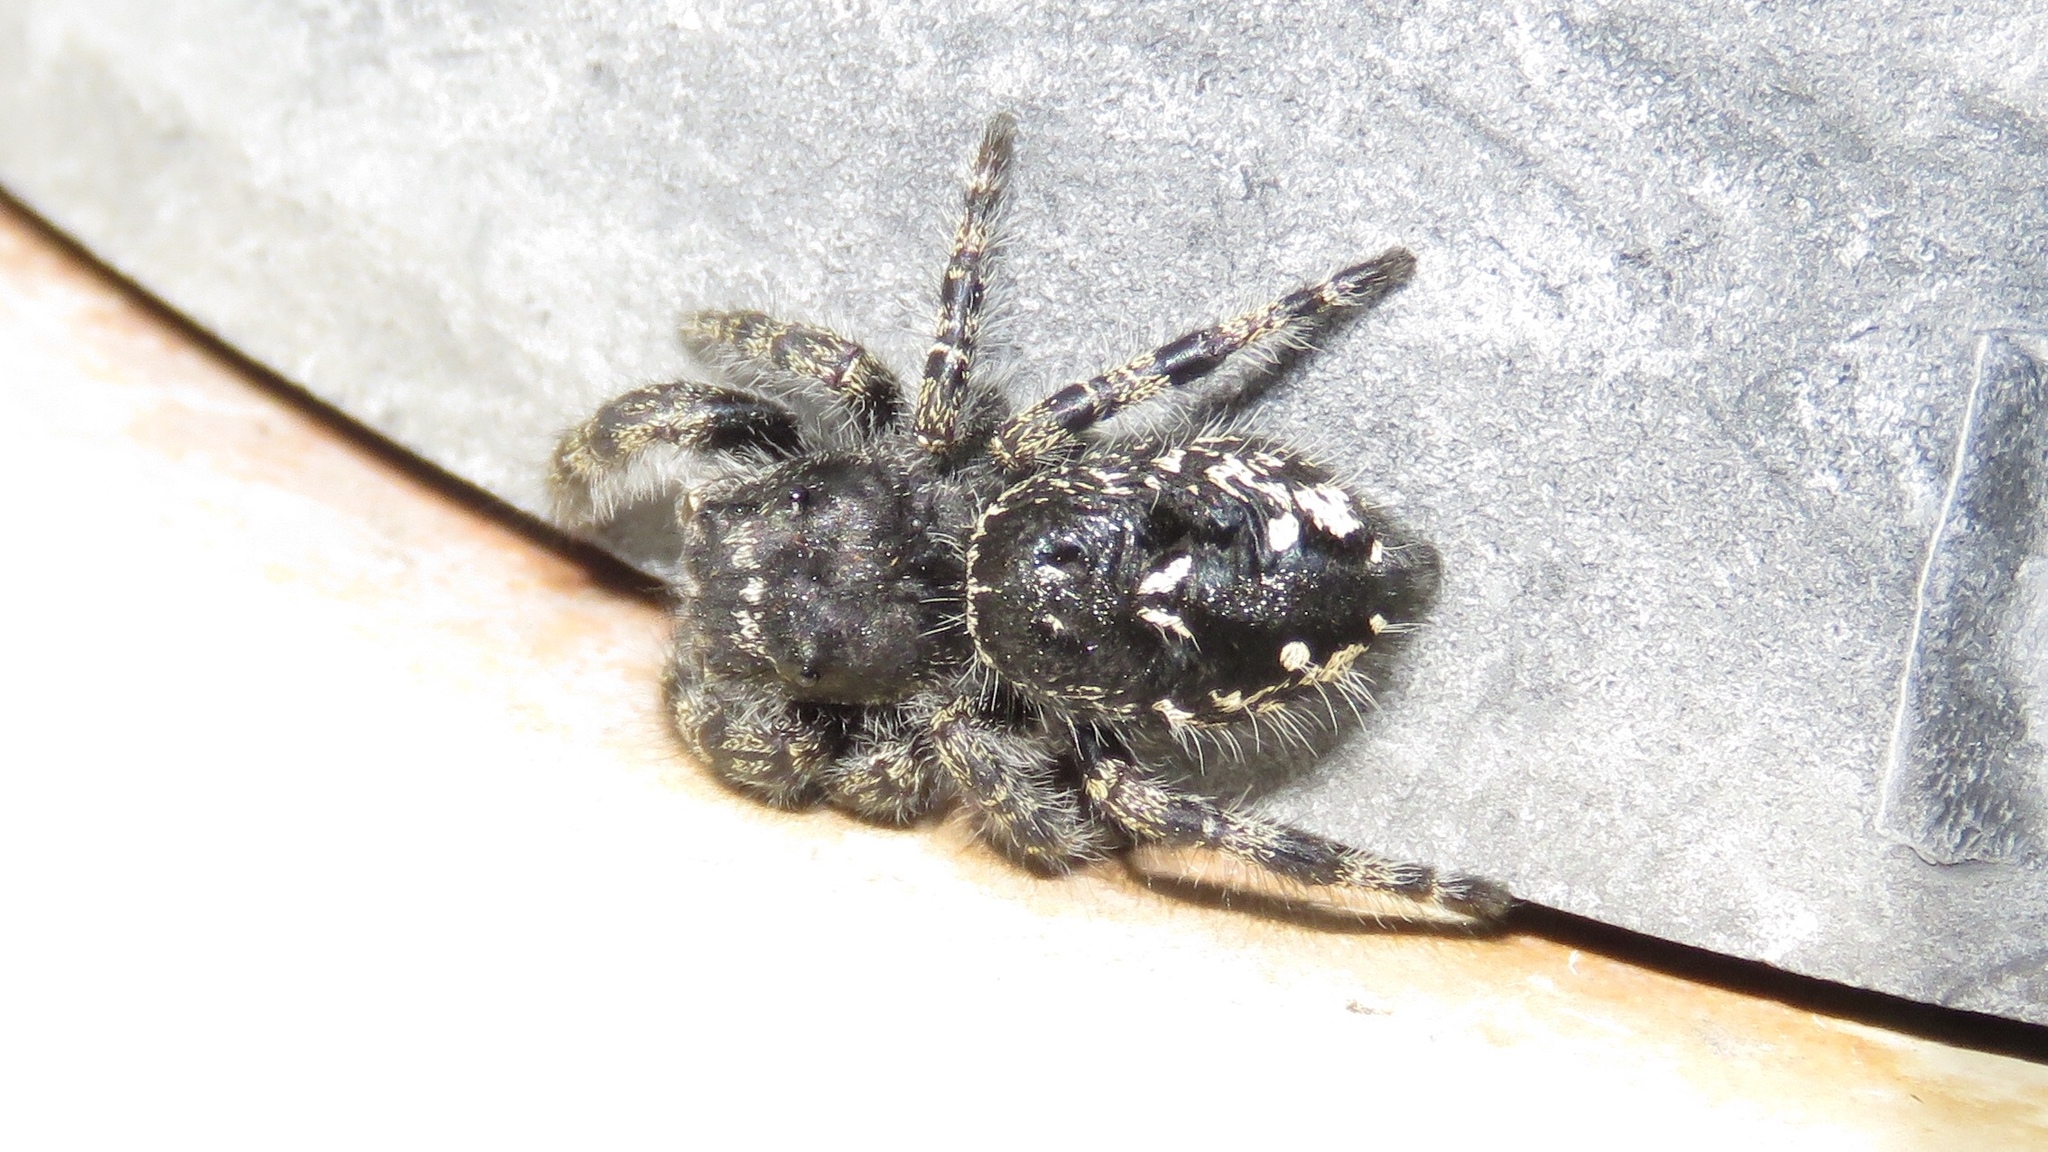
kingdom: Animalia
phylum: Arthropoda
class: Arachnida
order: Araneae
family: Salticidae
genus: Phidippus
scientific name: Phidippus borealis
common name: Boreal tufted jumping spider
